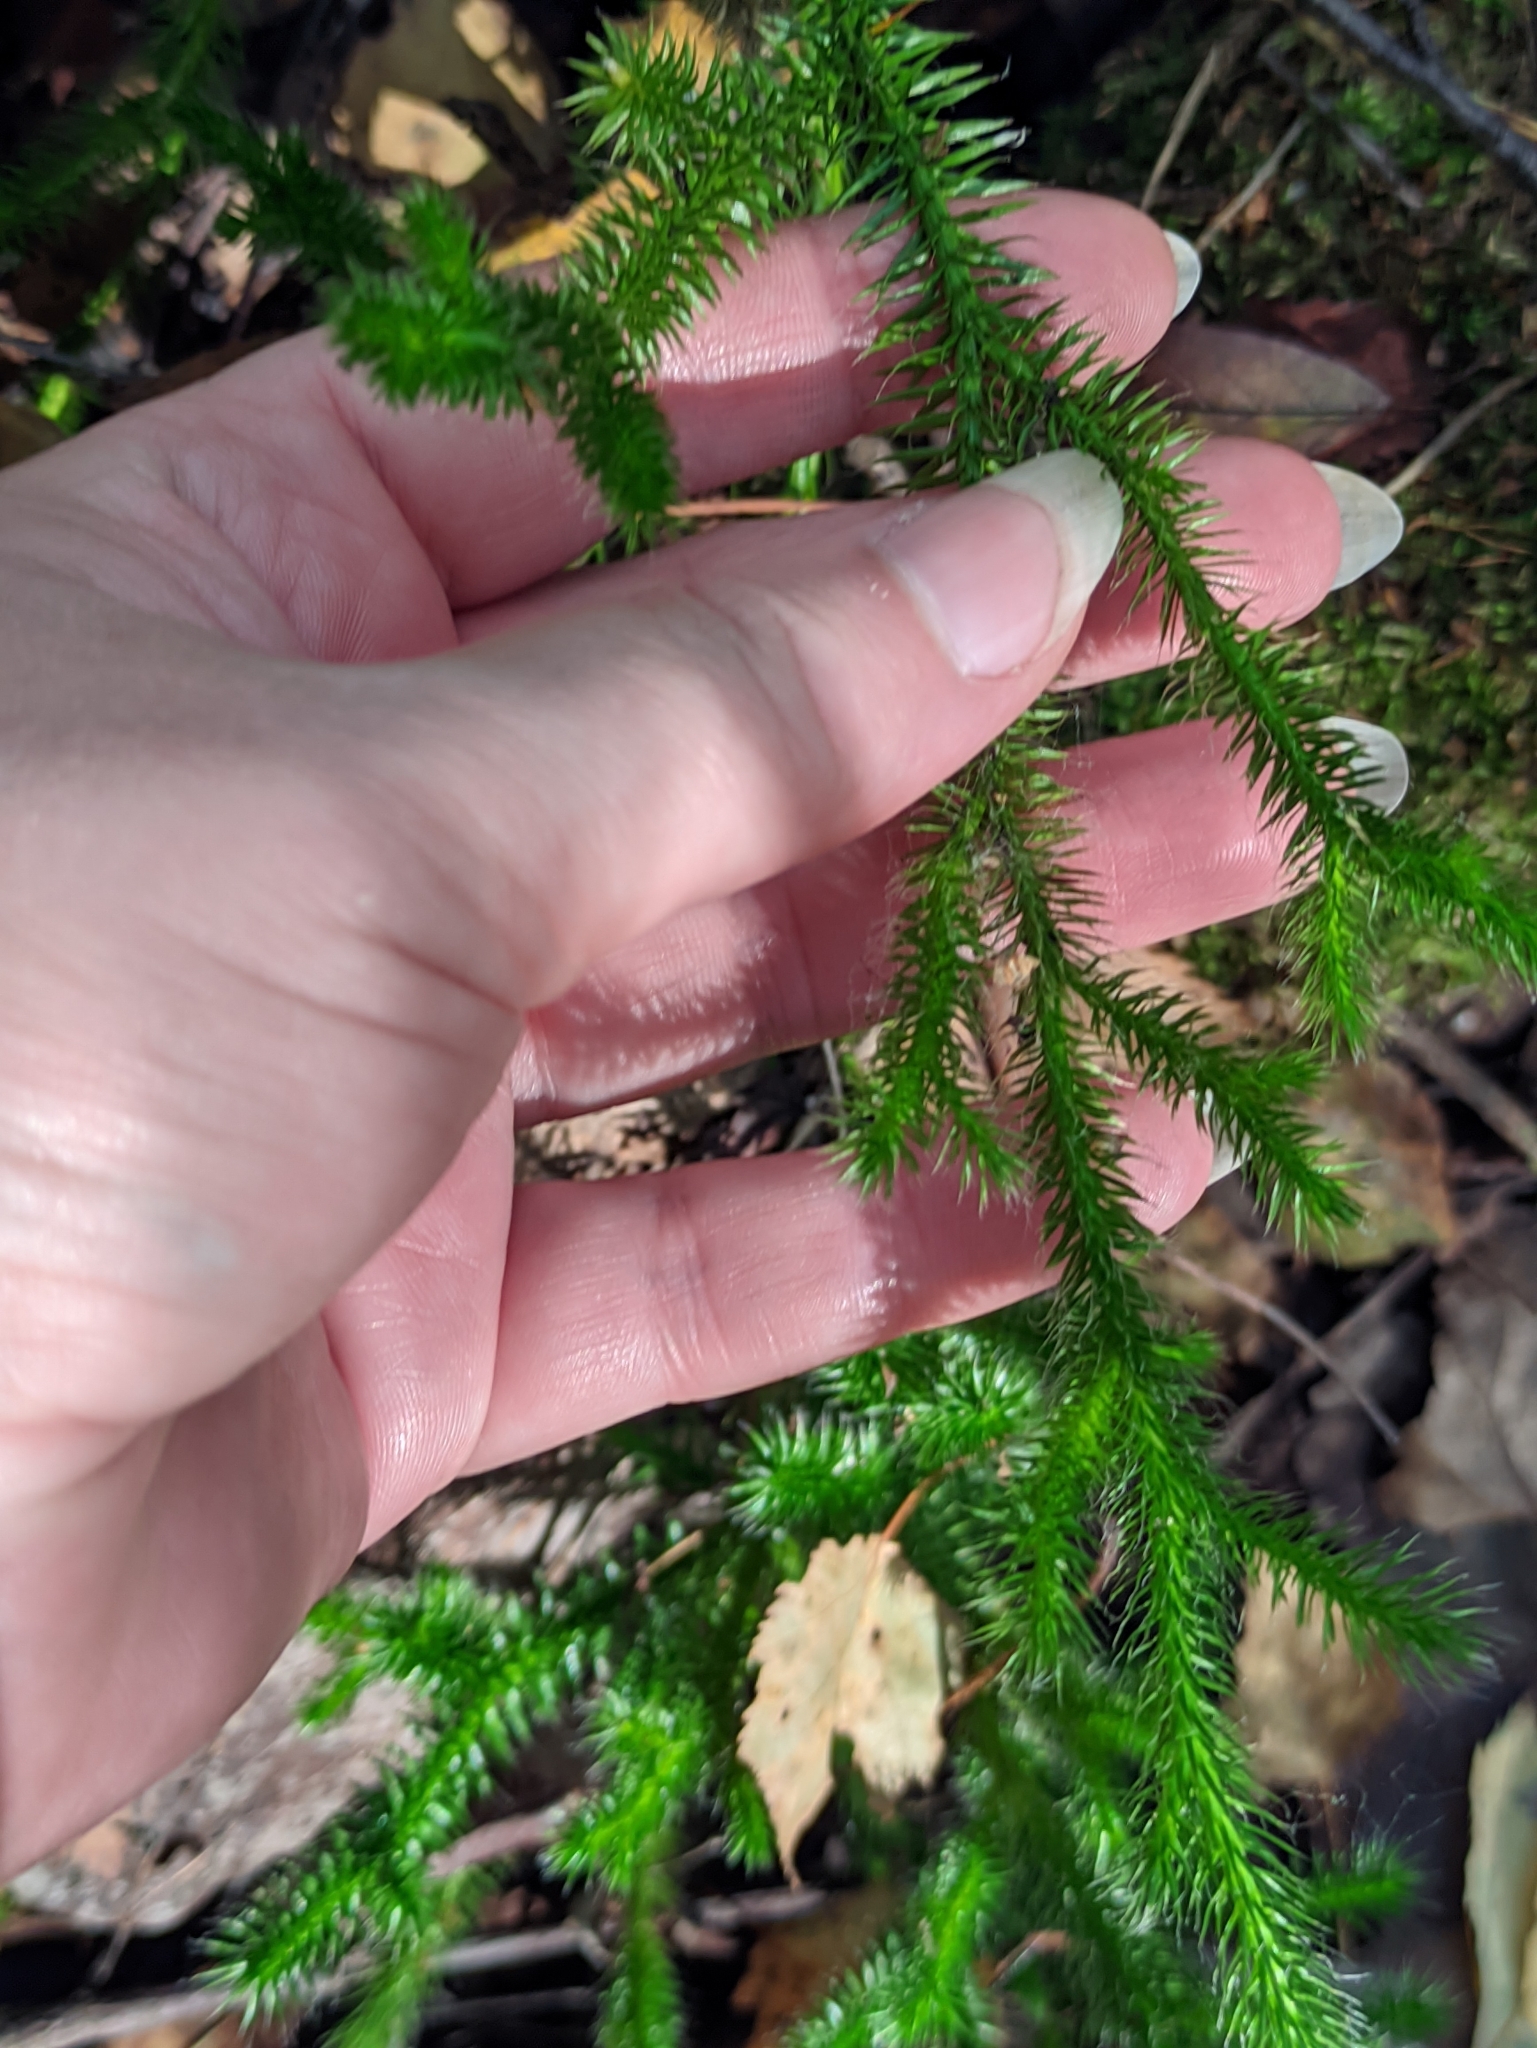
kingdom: Plantae
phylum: Tracheophyta
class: Lycopodiopsida
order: Lycopodiales
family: Lycopodiaceae
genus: Lycopodium
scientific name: Lycopodium clavatum
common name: Stag's-horn clubmoss
